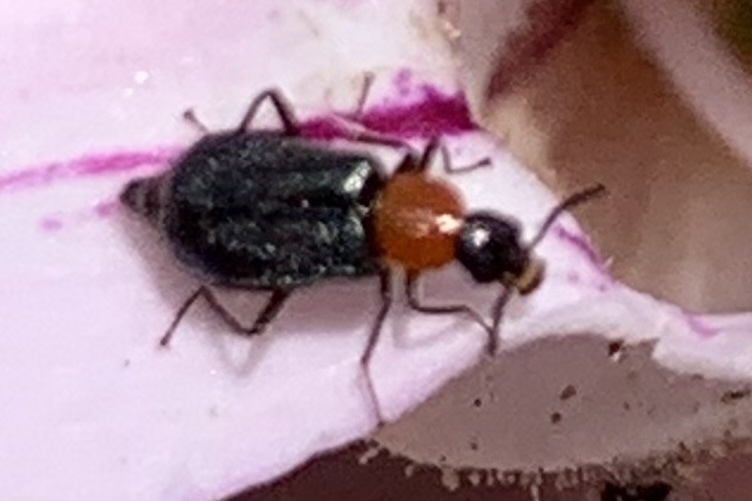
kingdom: Animalia
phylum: Arthropoda
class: Insecta
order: Coleoptera
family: Malachiidae
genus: Attalus
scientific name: Attalus
